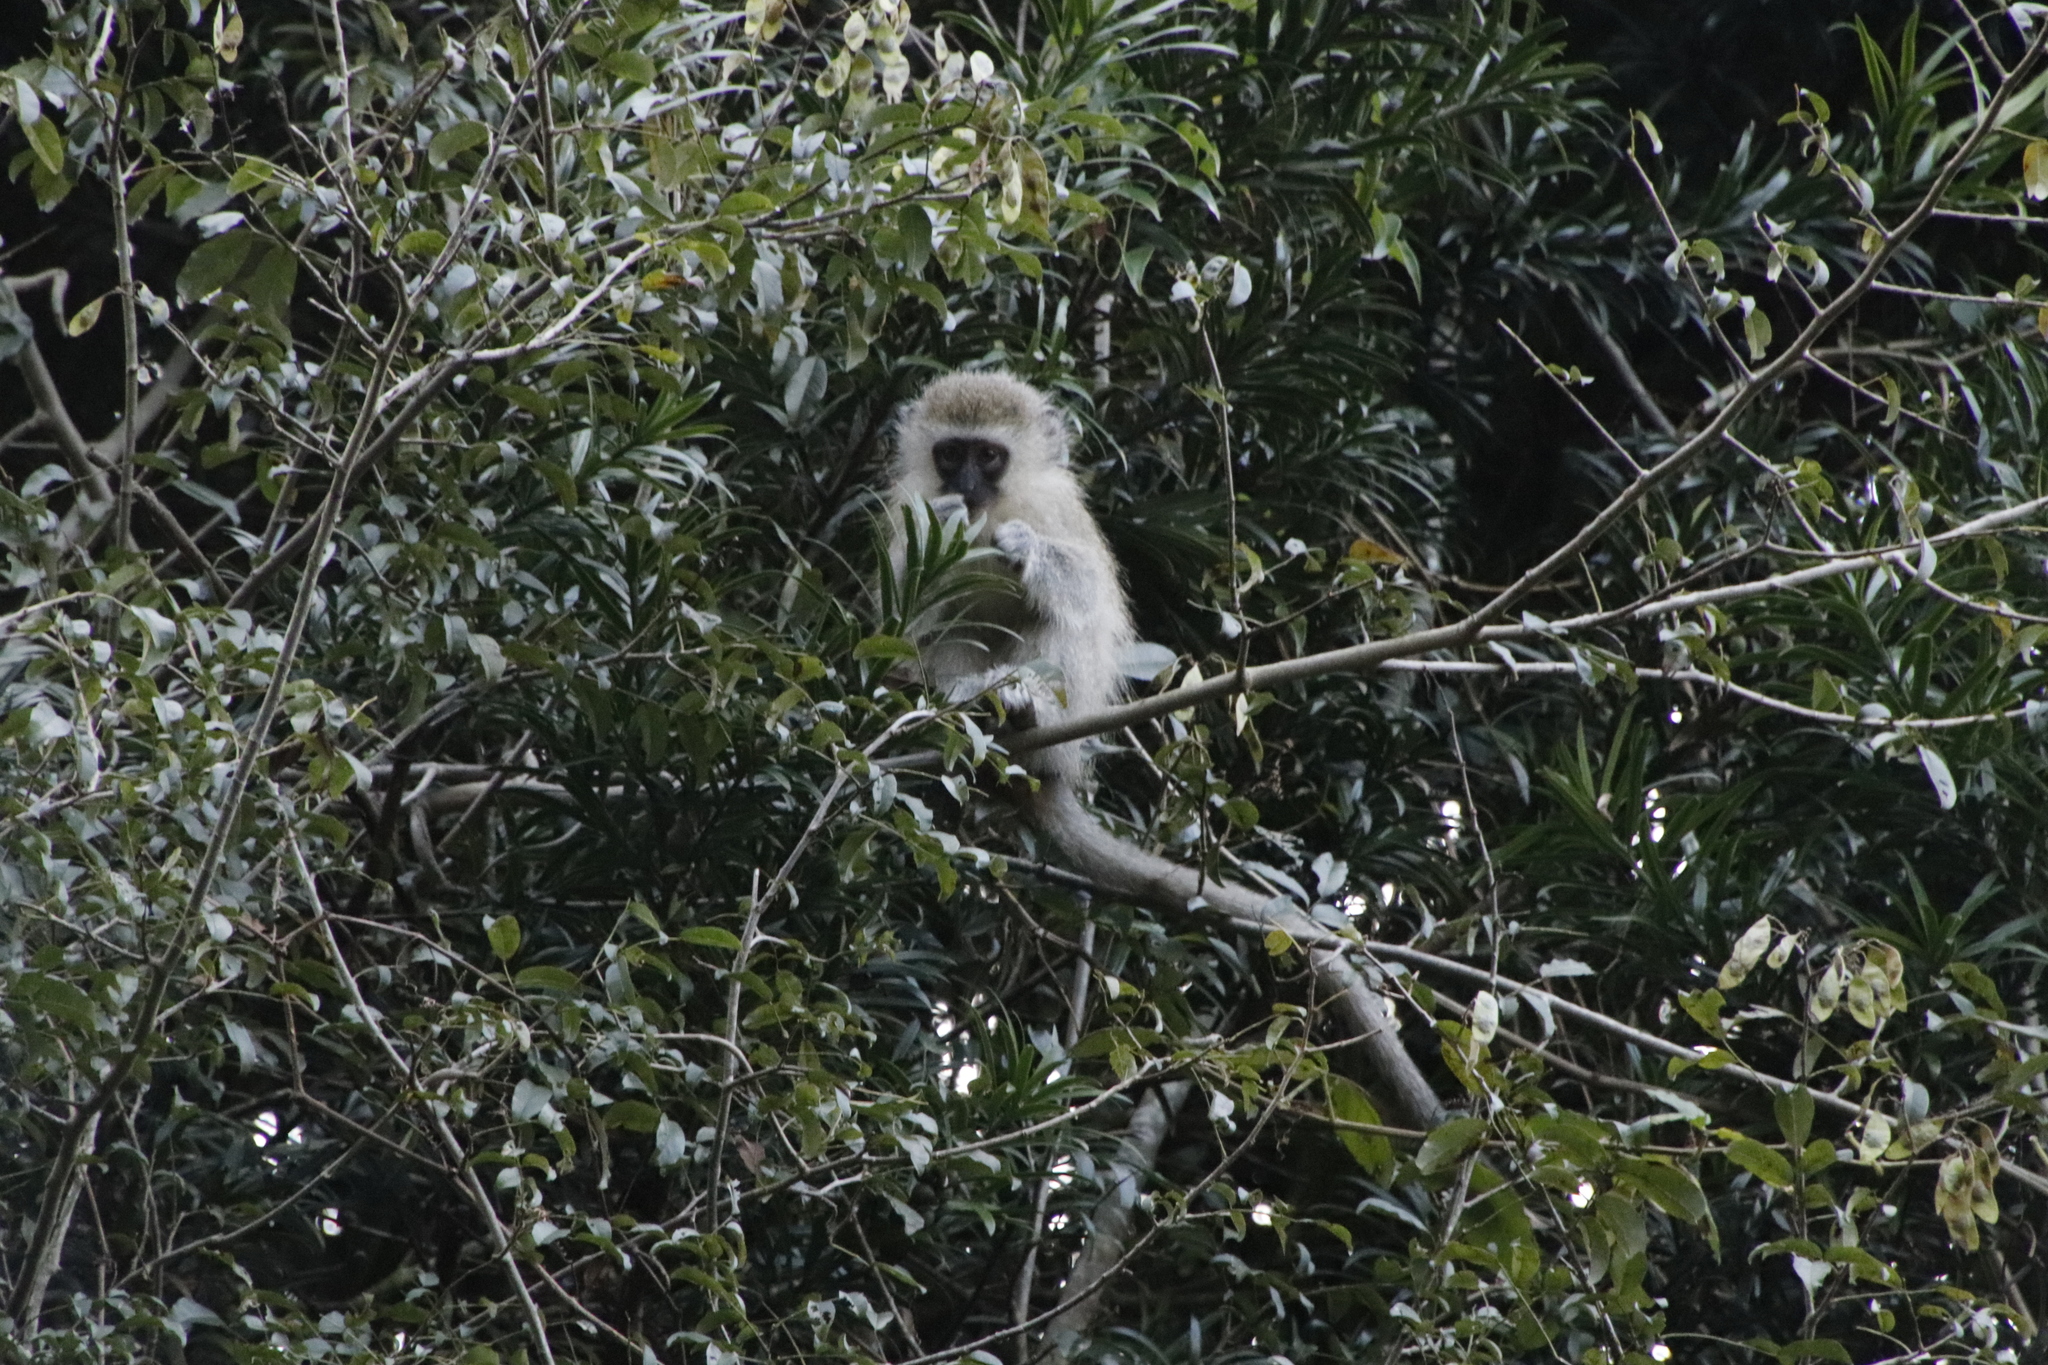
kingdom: Animalia
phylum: Chordata
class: Mammalia
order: Primates
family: Cercopithecidae
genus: Chlorocebus
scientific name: Chlorocebus pygerythrus
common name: Vervet monkey
